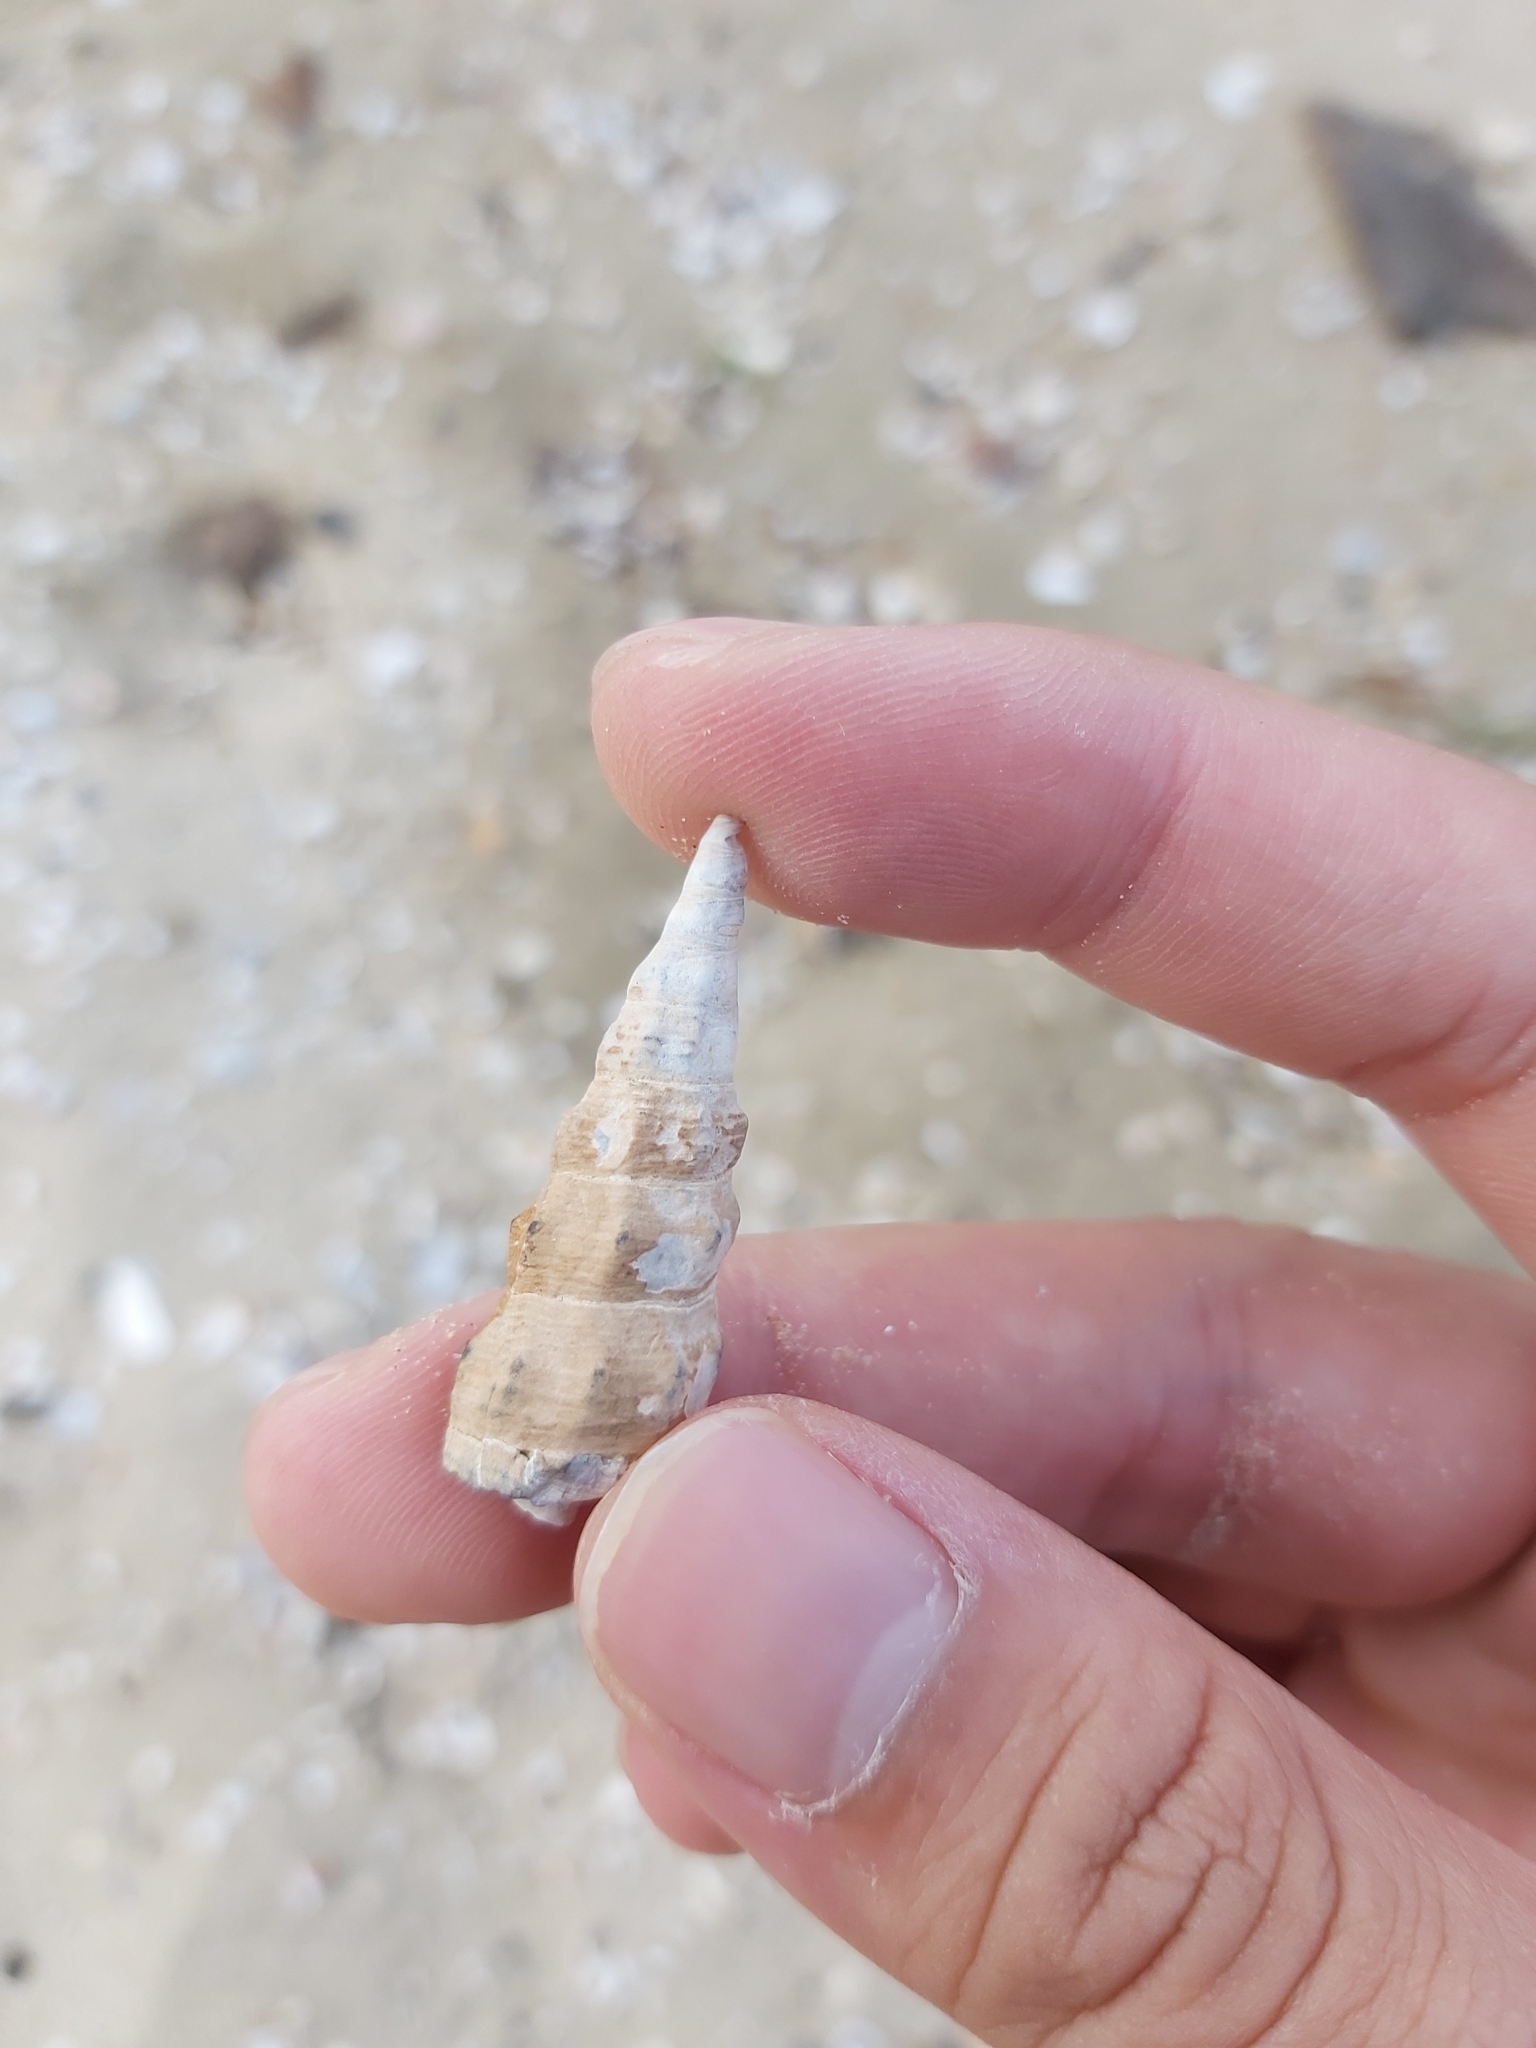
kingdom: Animalia
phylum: Mollusca
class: Gastropoda
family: Batillariidae
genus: Pyrazus
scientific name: Pyrazus ebeninus
